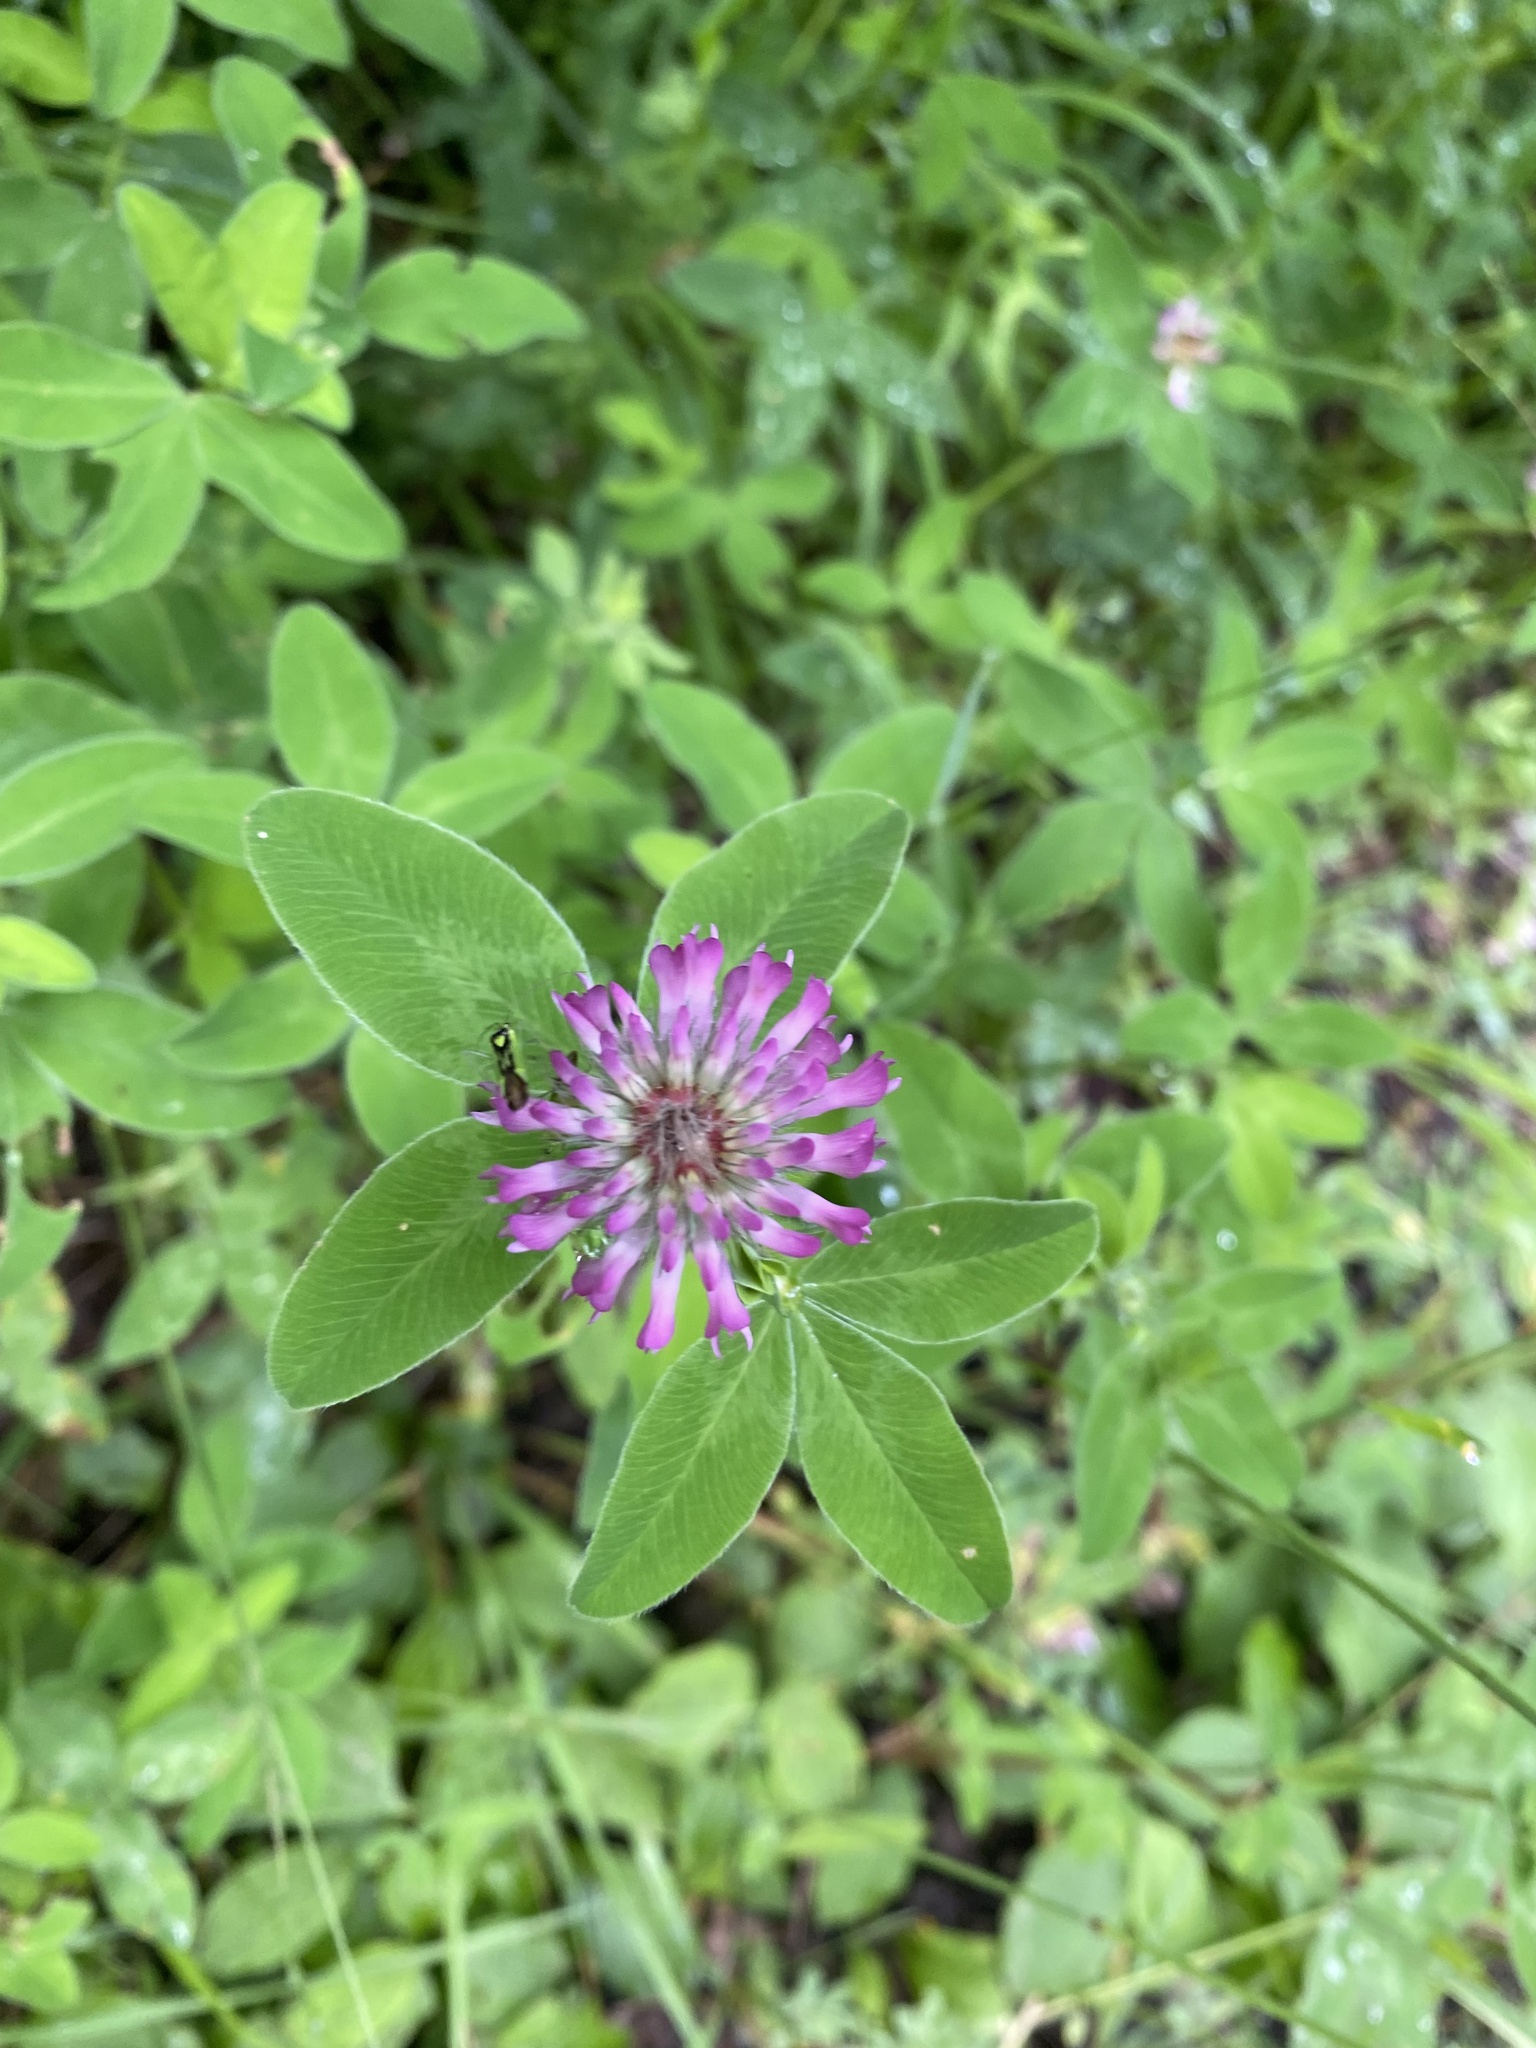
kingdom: Plantae
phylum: Tracheophyta
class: Magnoliopsida
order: Fabales
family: Fabaceae
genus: Trifolium
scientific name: Trifolium medium
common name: Zigzag clover
